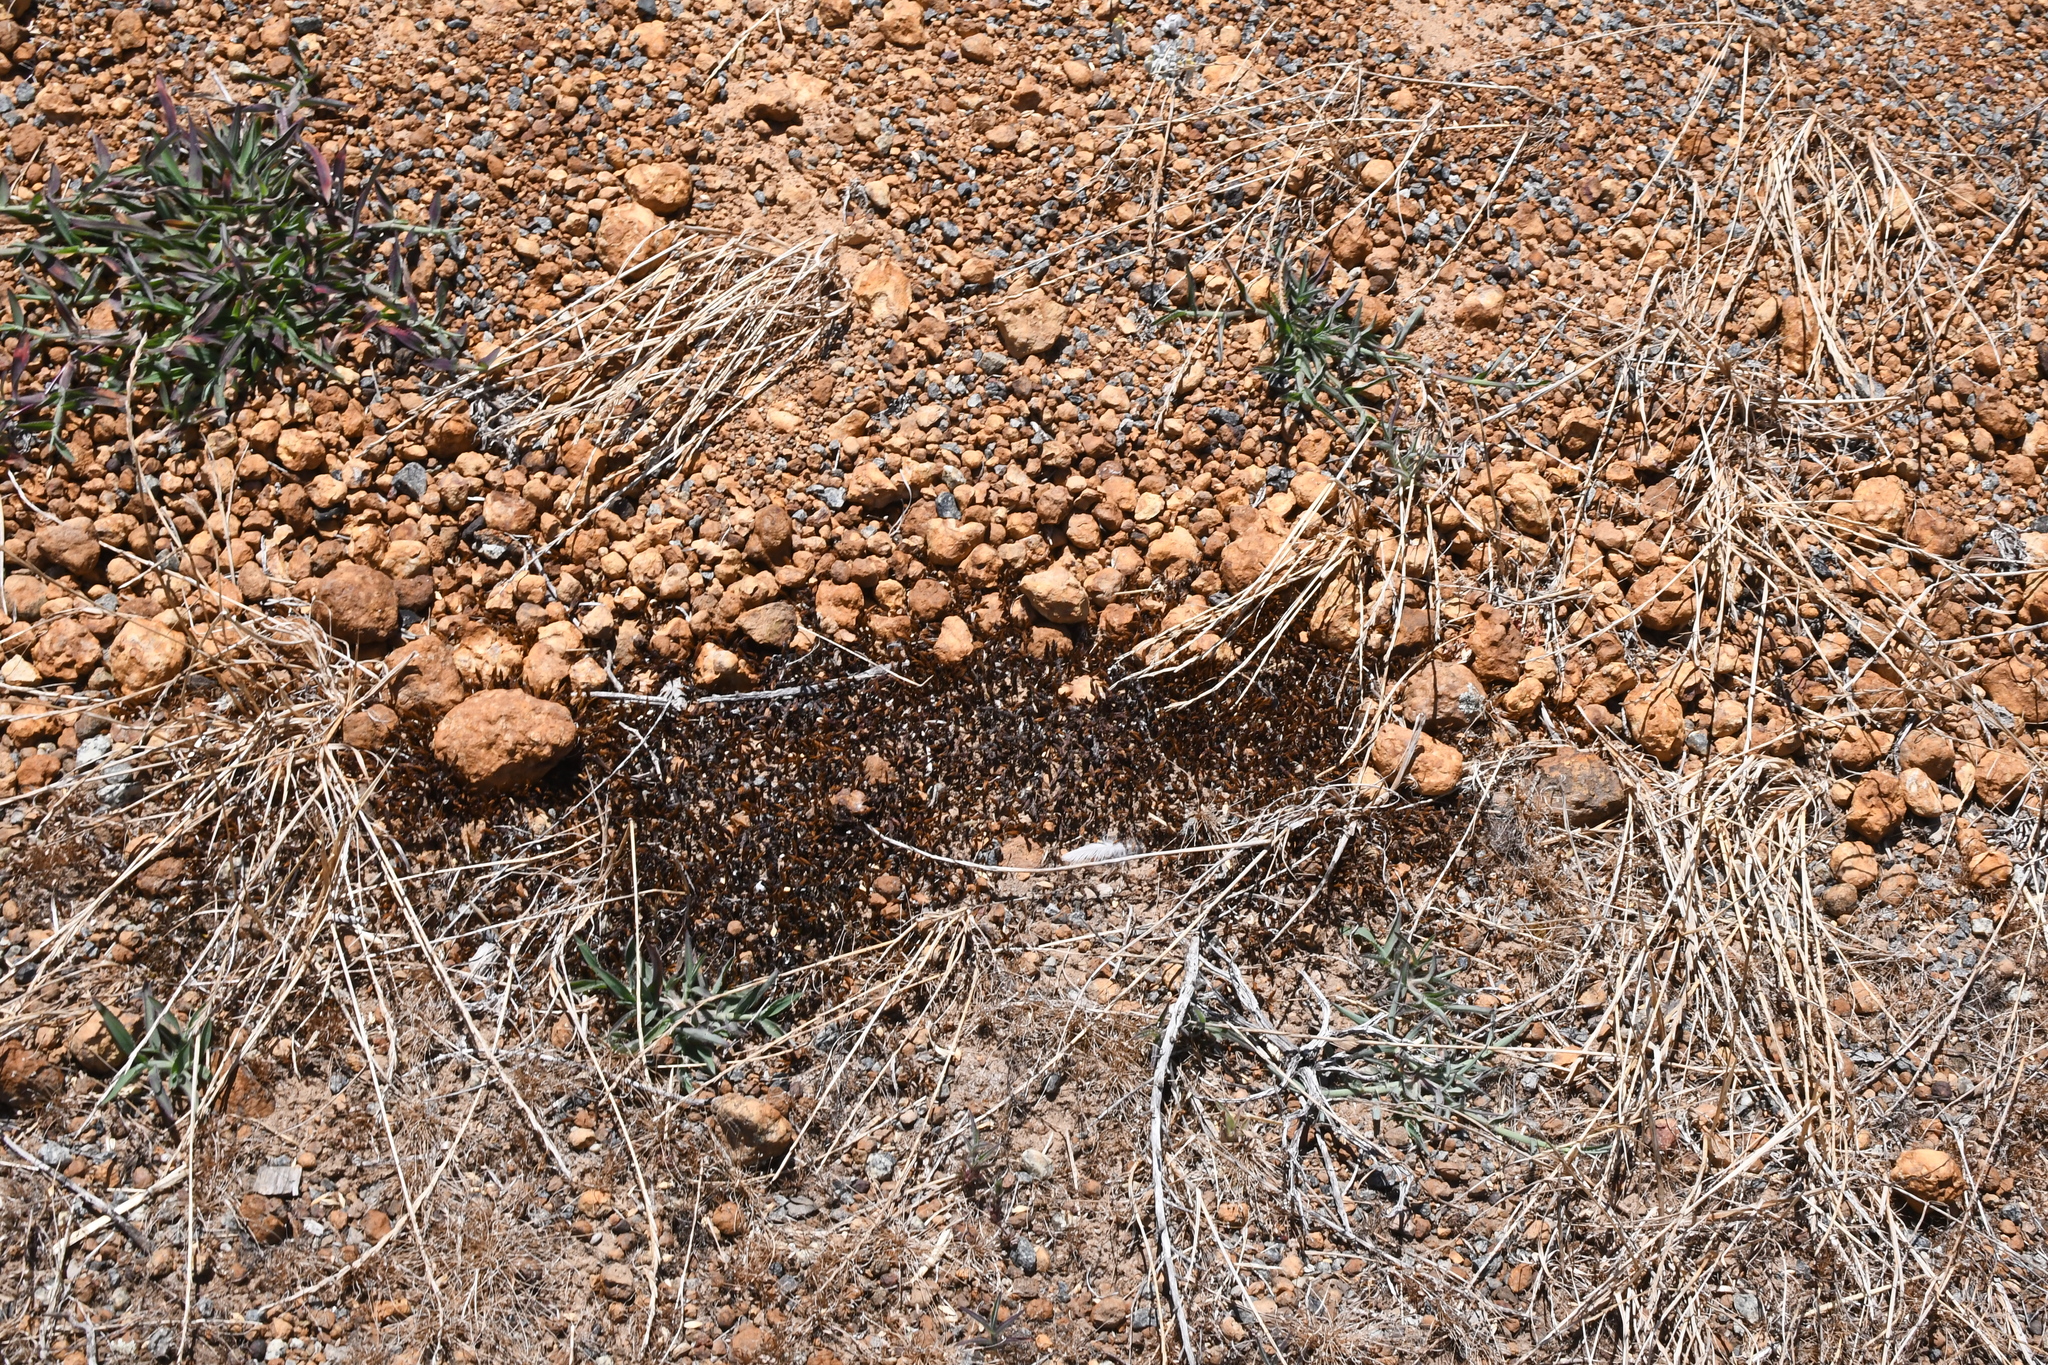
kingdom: Plantae
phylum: Bryophyta
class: Polytrichopsida
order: Polytrichales
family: Polytrichaceae
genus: Polytrichum
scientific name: Polytrichum juniperinum
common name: Juniper haircap moss
